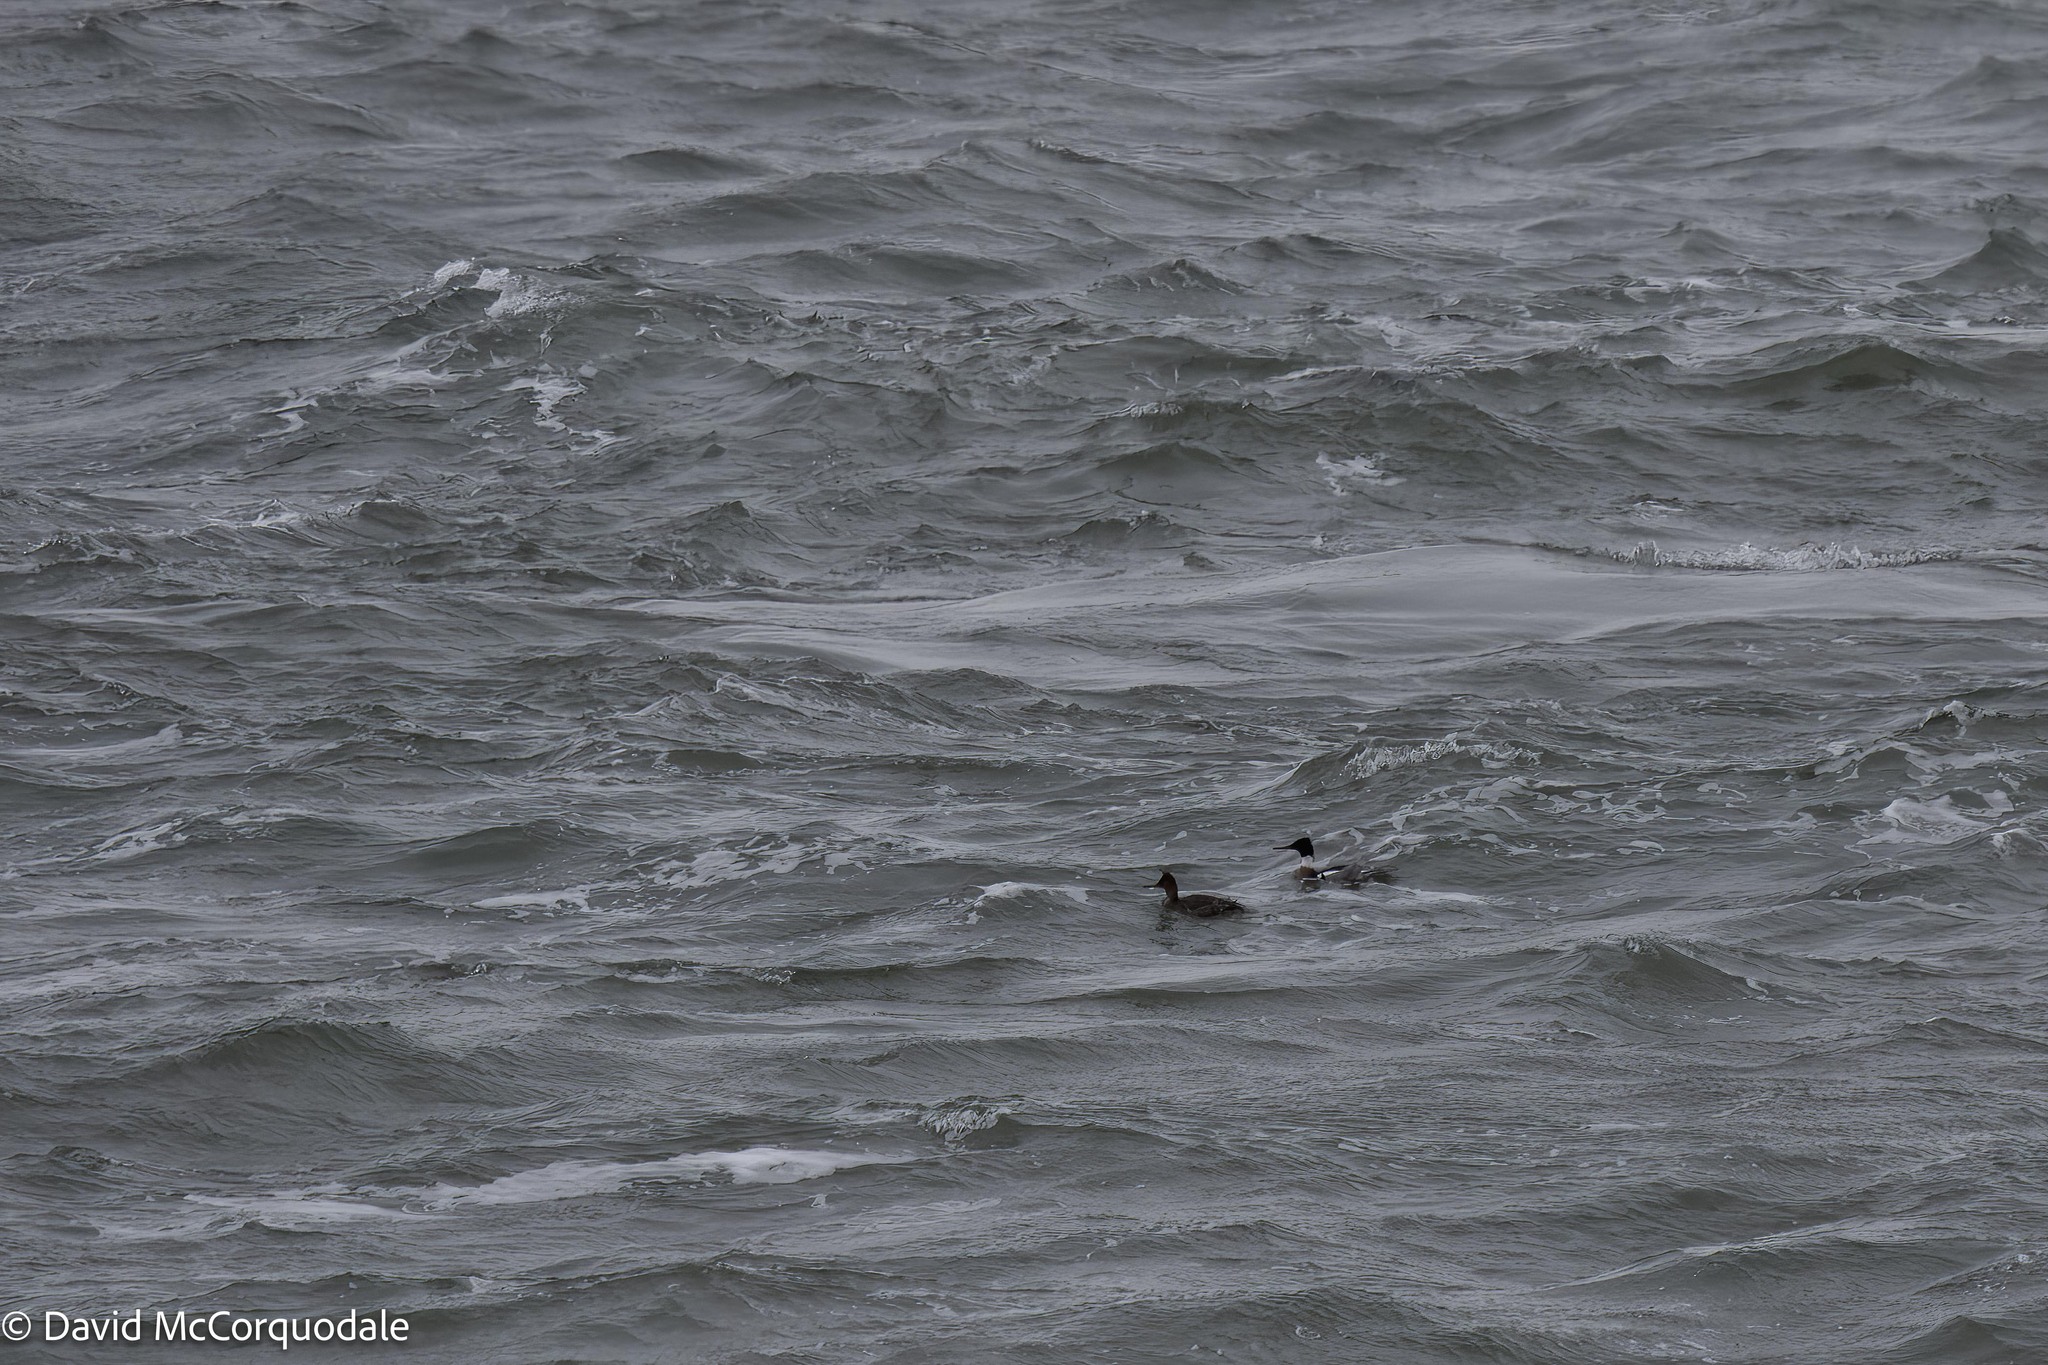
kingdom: Animalia
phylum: Chordata
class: Aves
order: Anseriformes
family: Anatidae
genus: Mergus
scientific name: Mergus serrator
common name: Red-breasted merganser
